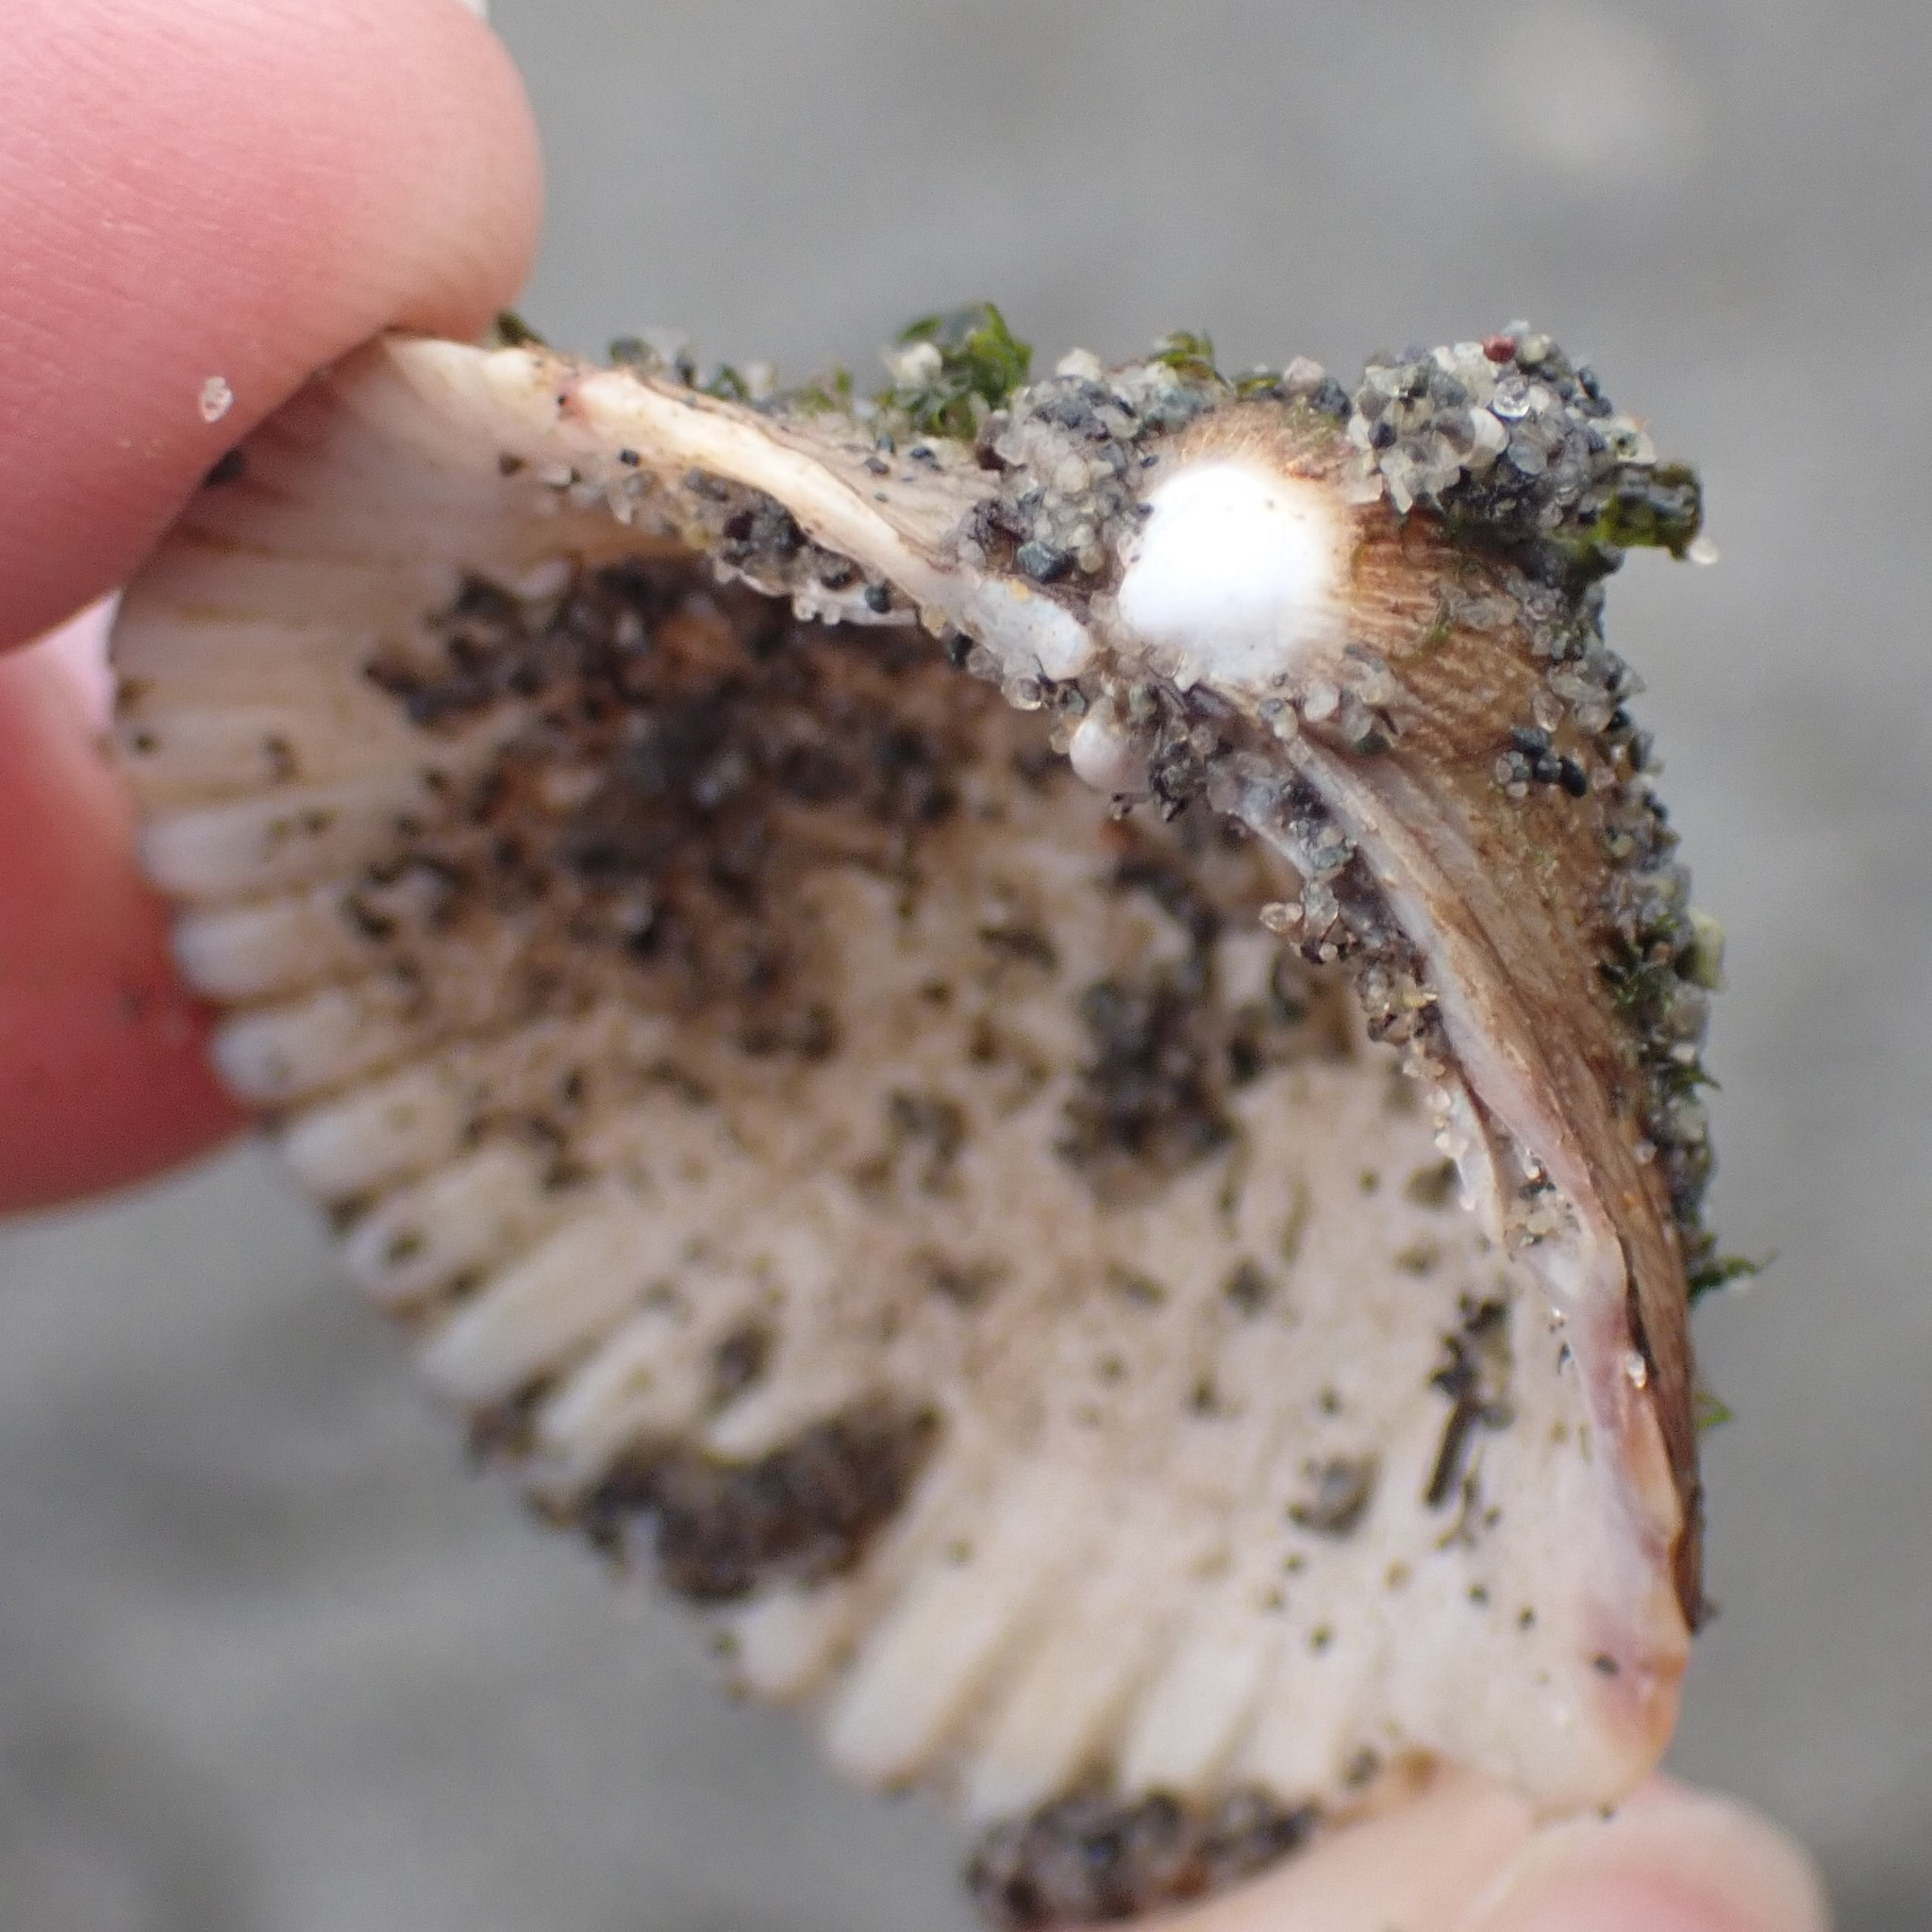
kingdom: Animalia
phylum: Mollusca
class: Bivalvia
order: Cardiida
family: Cardiidae
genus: Clinocardium
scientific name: Clinocardium nuttallii
